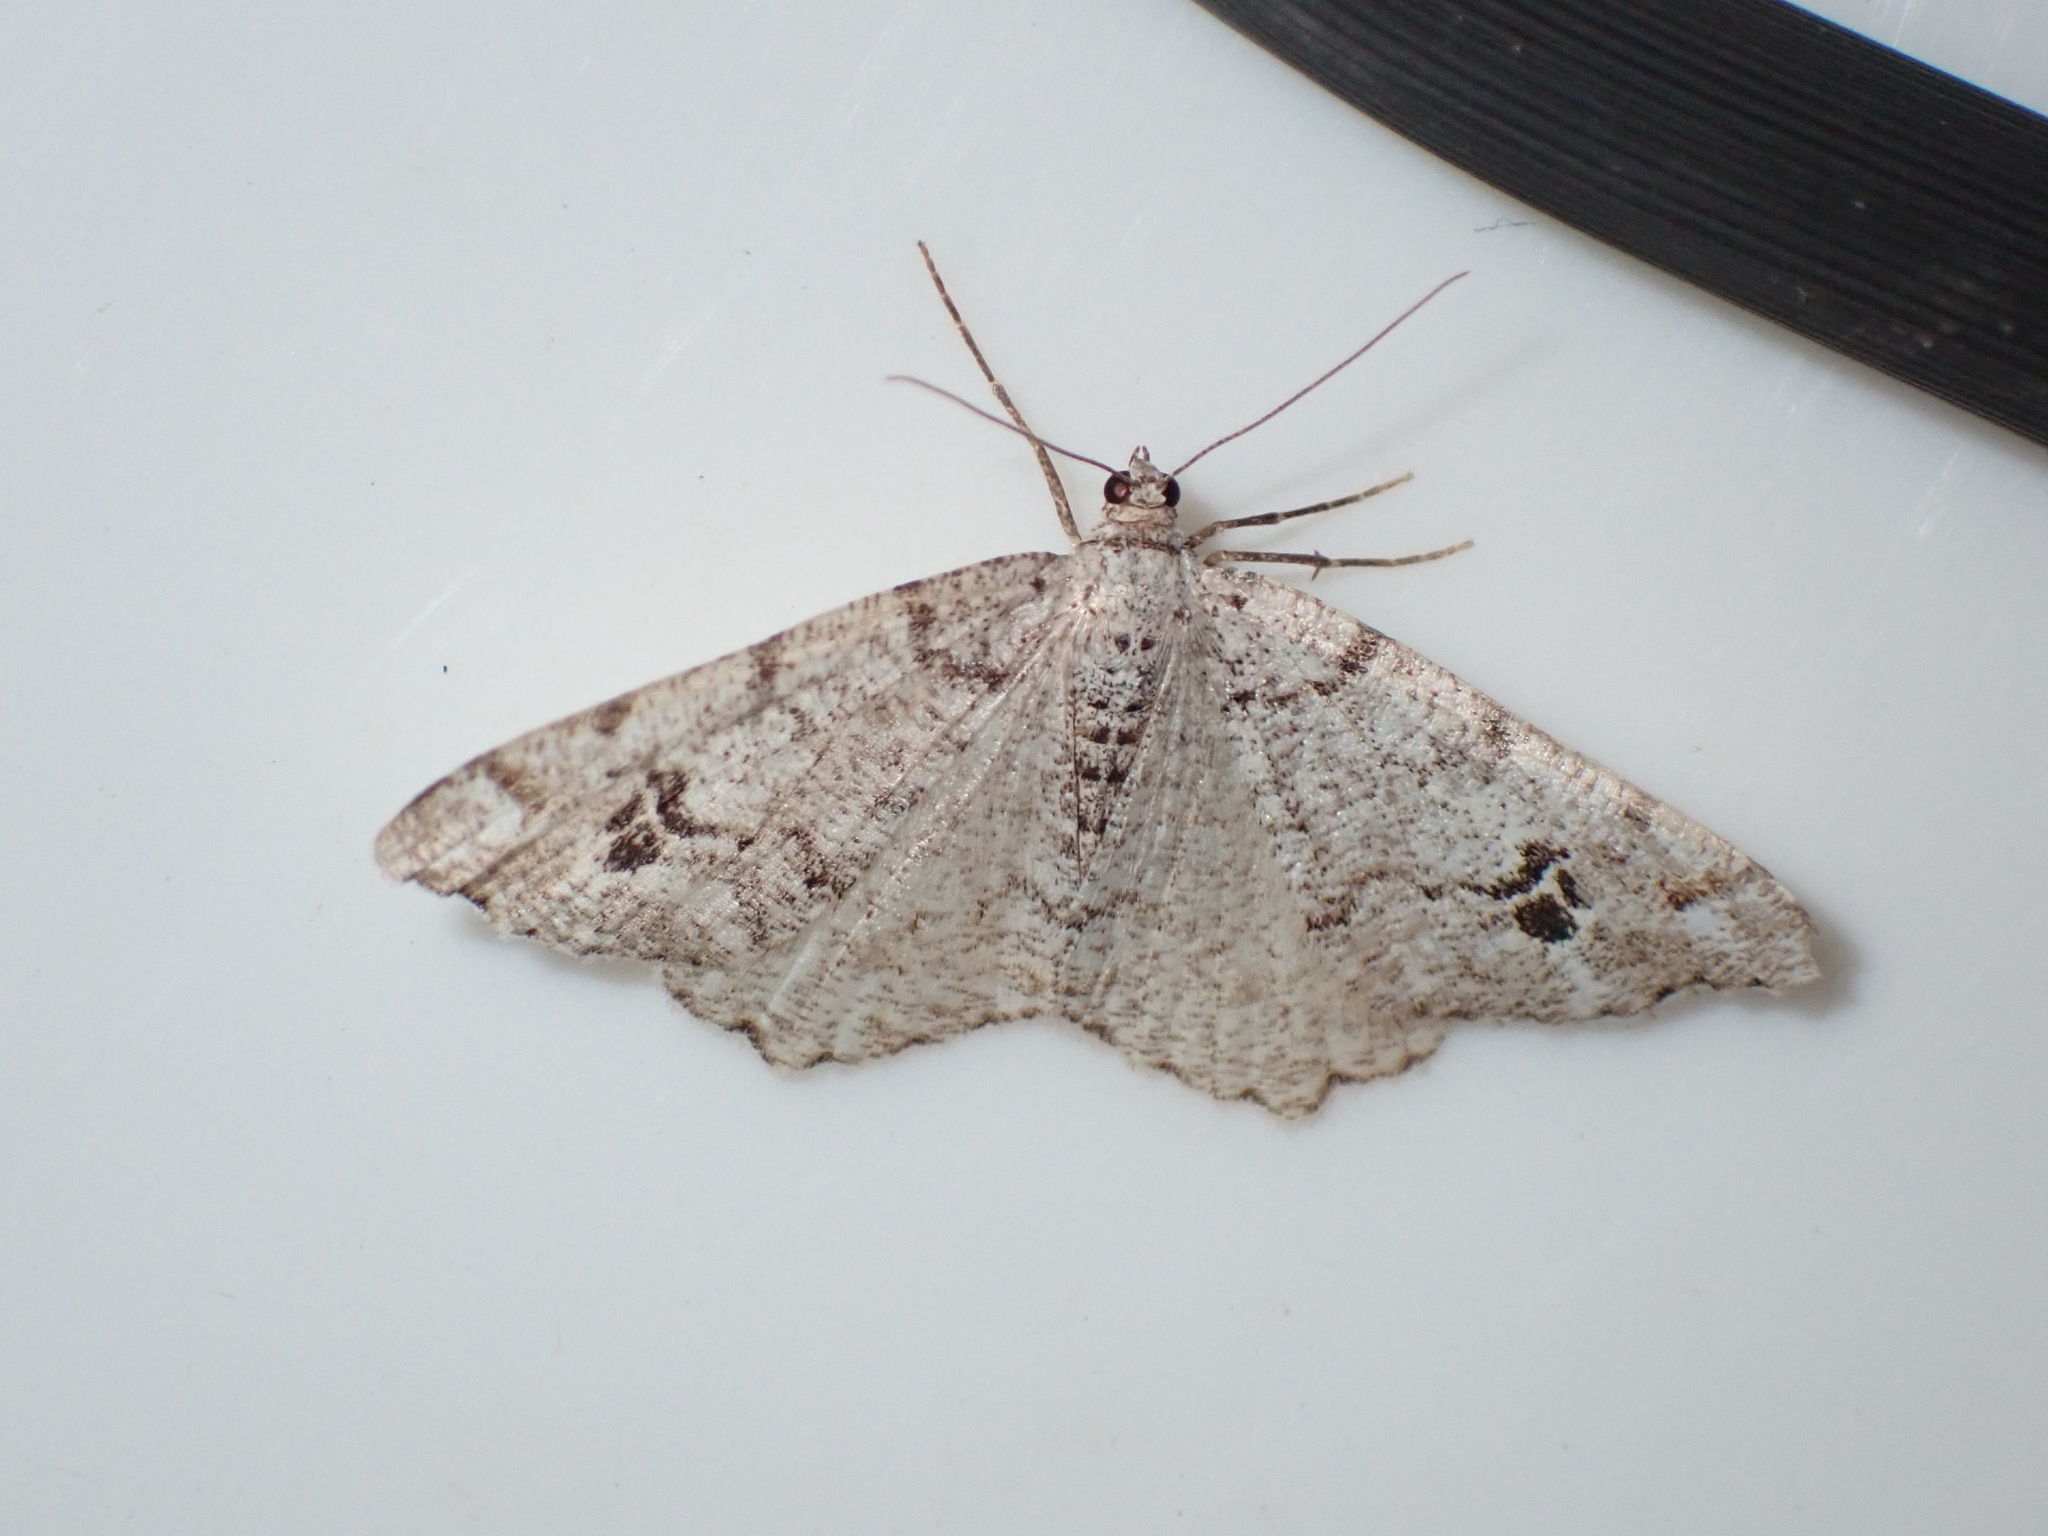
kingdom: Animalia
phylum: Arthropoda
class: Insecta
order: Lepidoptera
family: Geometridae
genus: Macaria
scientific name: Macaria signaria
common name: Dusky peacock
